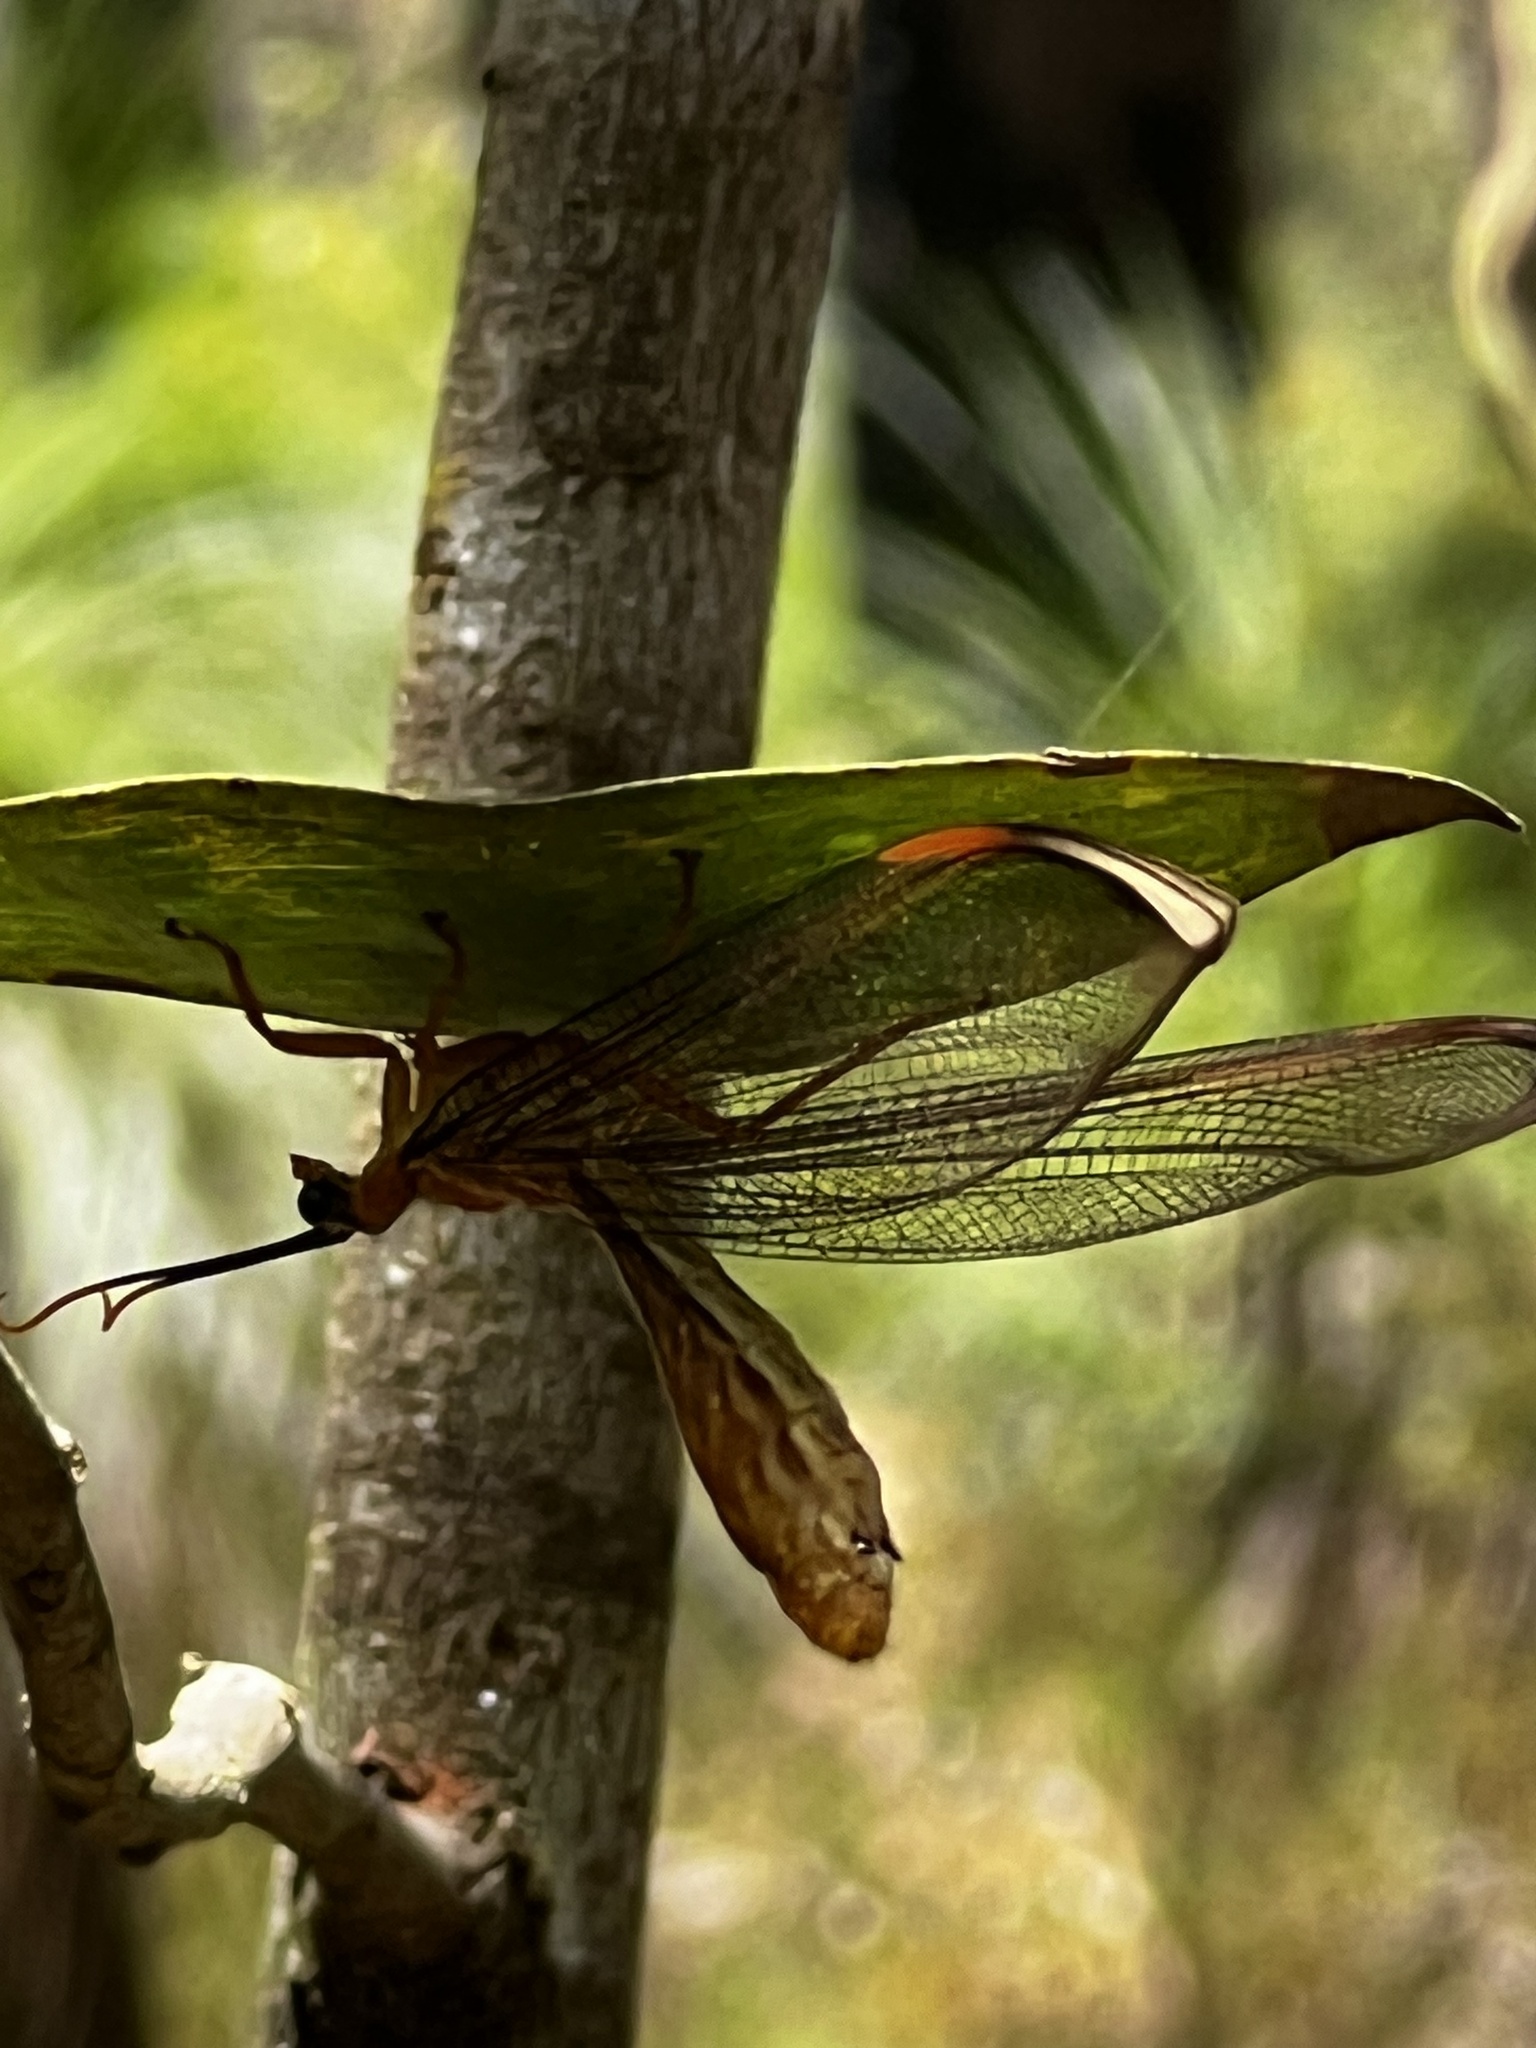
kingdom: Animalia
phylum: Arthropoda
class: Insecta
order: Neuroptera
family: Nymphidae
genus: Nymphes
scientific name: Nymphes myrmeleonoides
